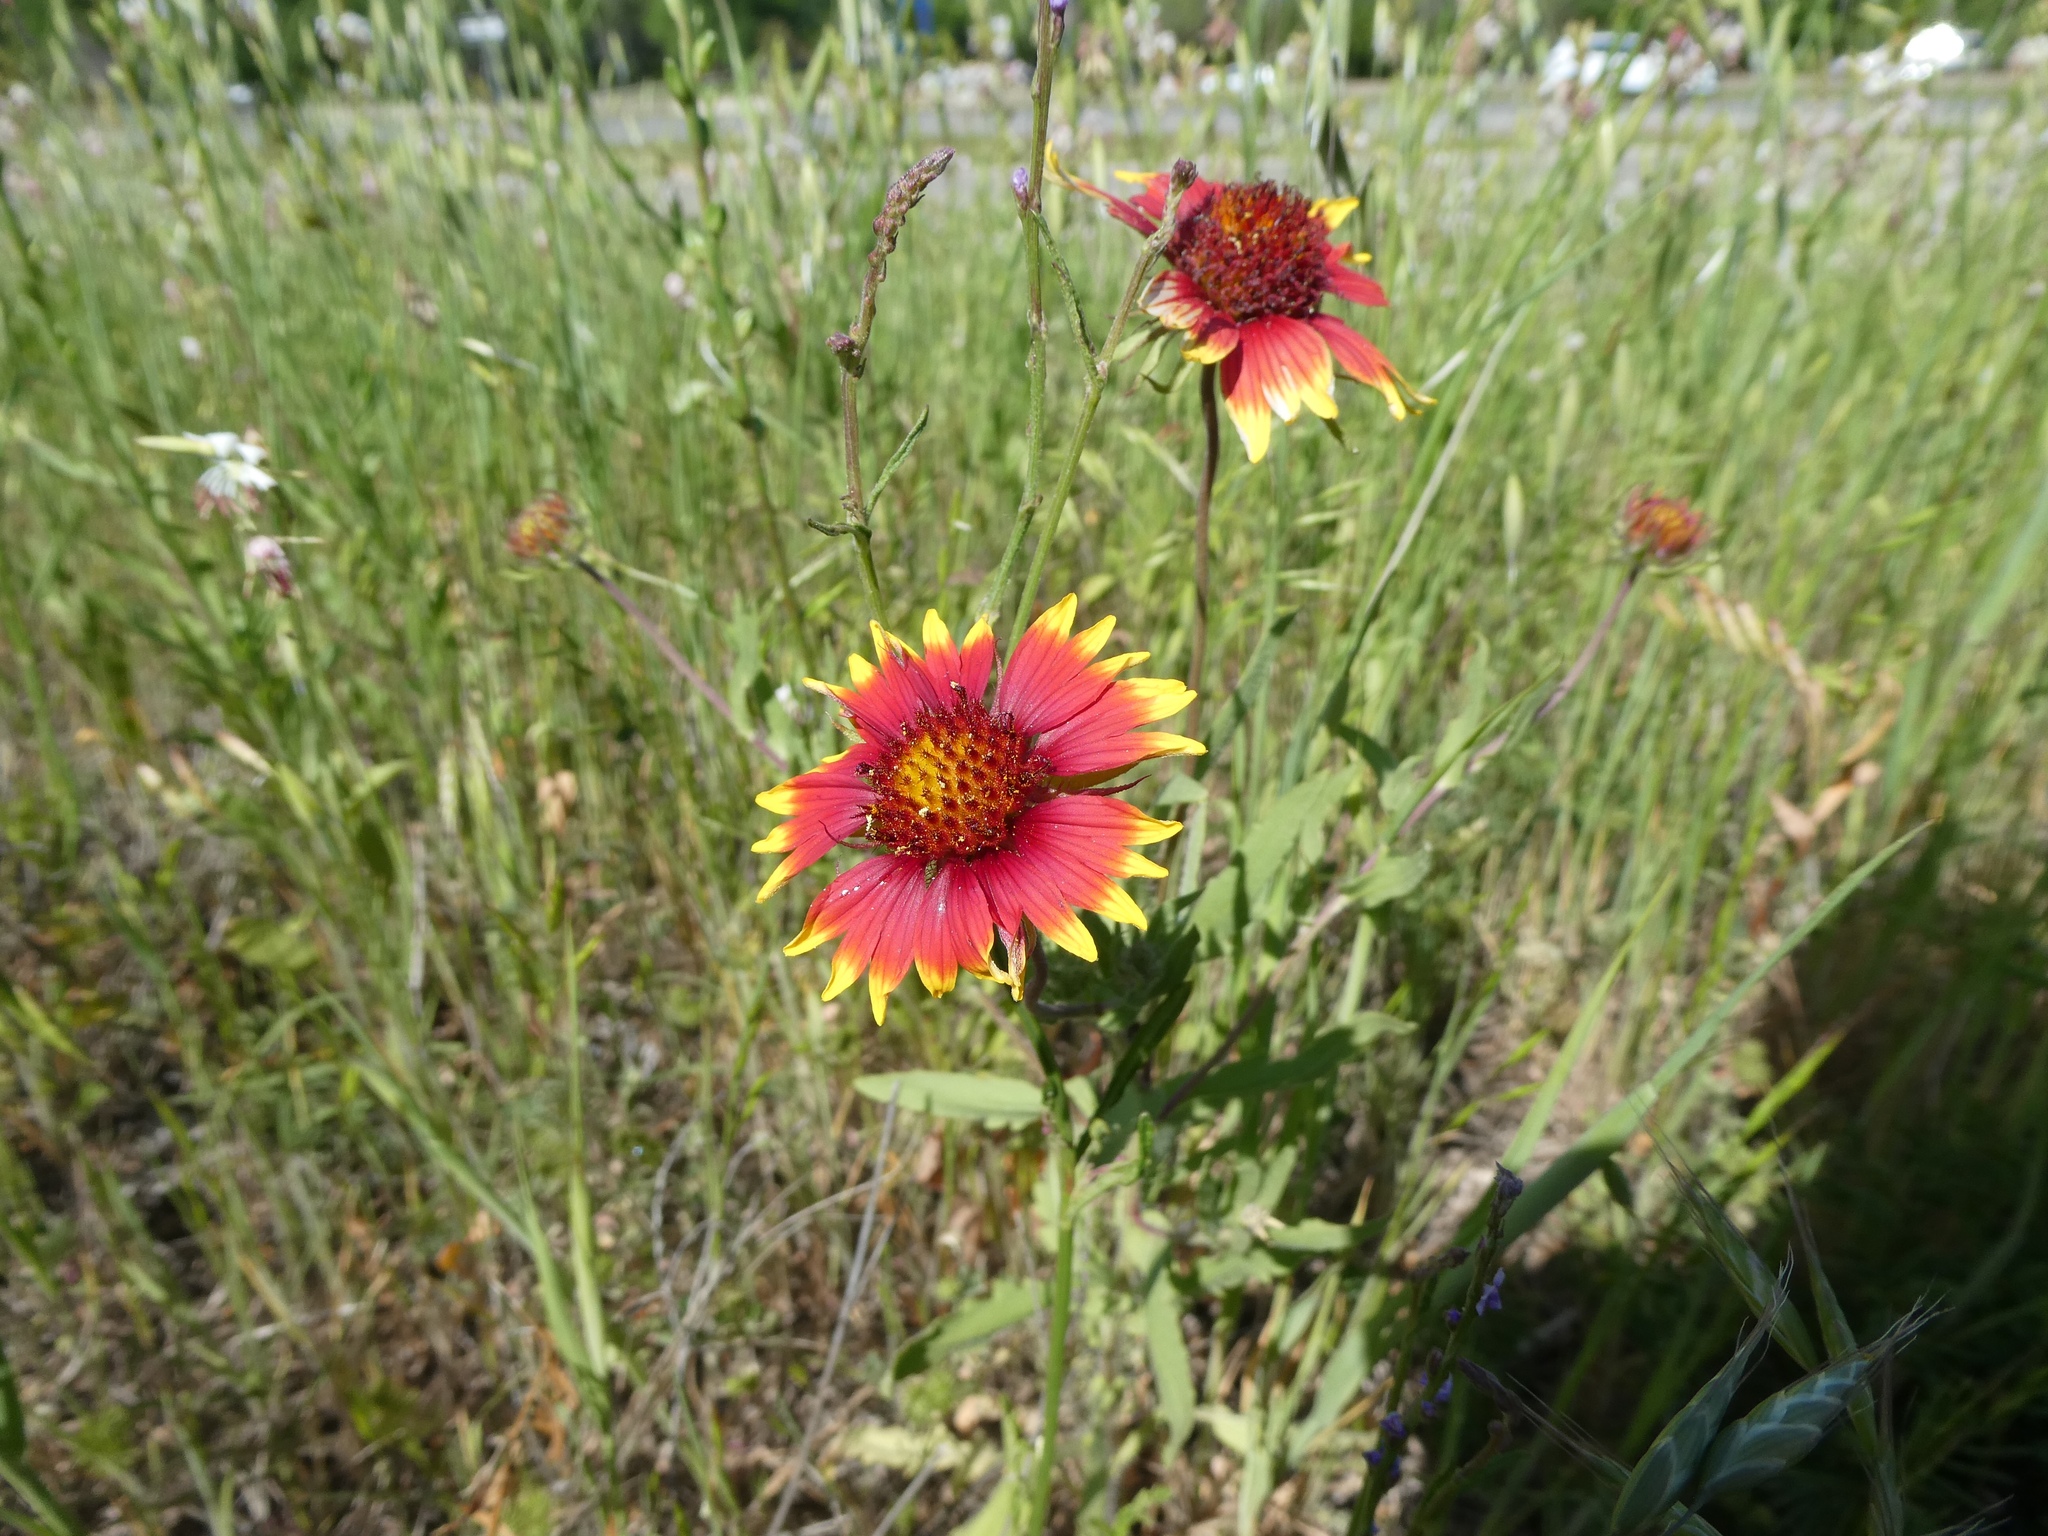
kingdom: Plantae
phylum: Tracheophyta
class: Magnoliopsida
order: Asterales
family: Asteraceae
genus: Gaillardia
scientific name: Gaillardia pulchella
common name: Firewheel
